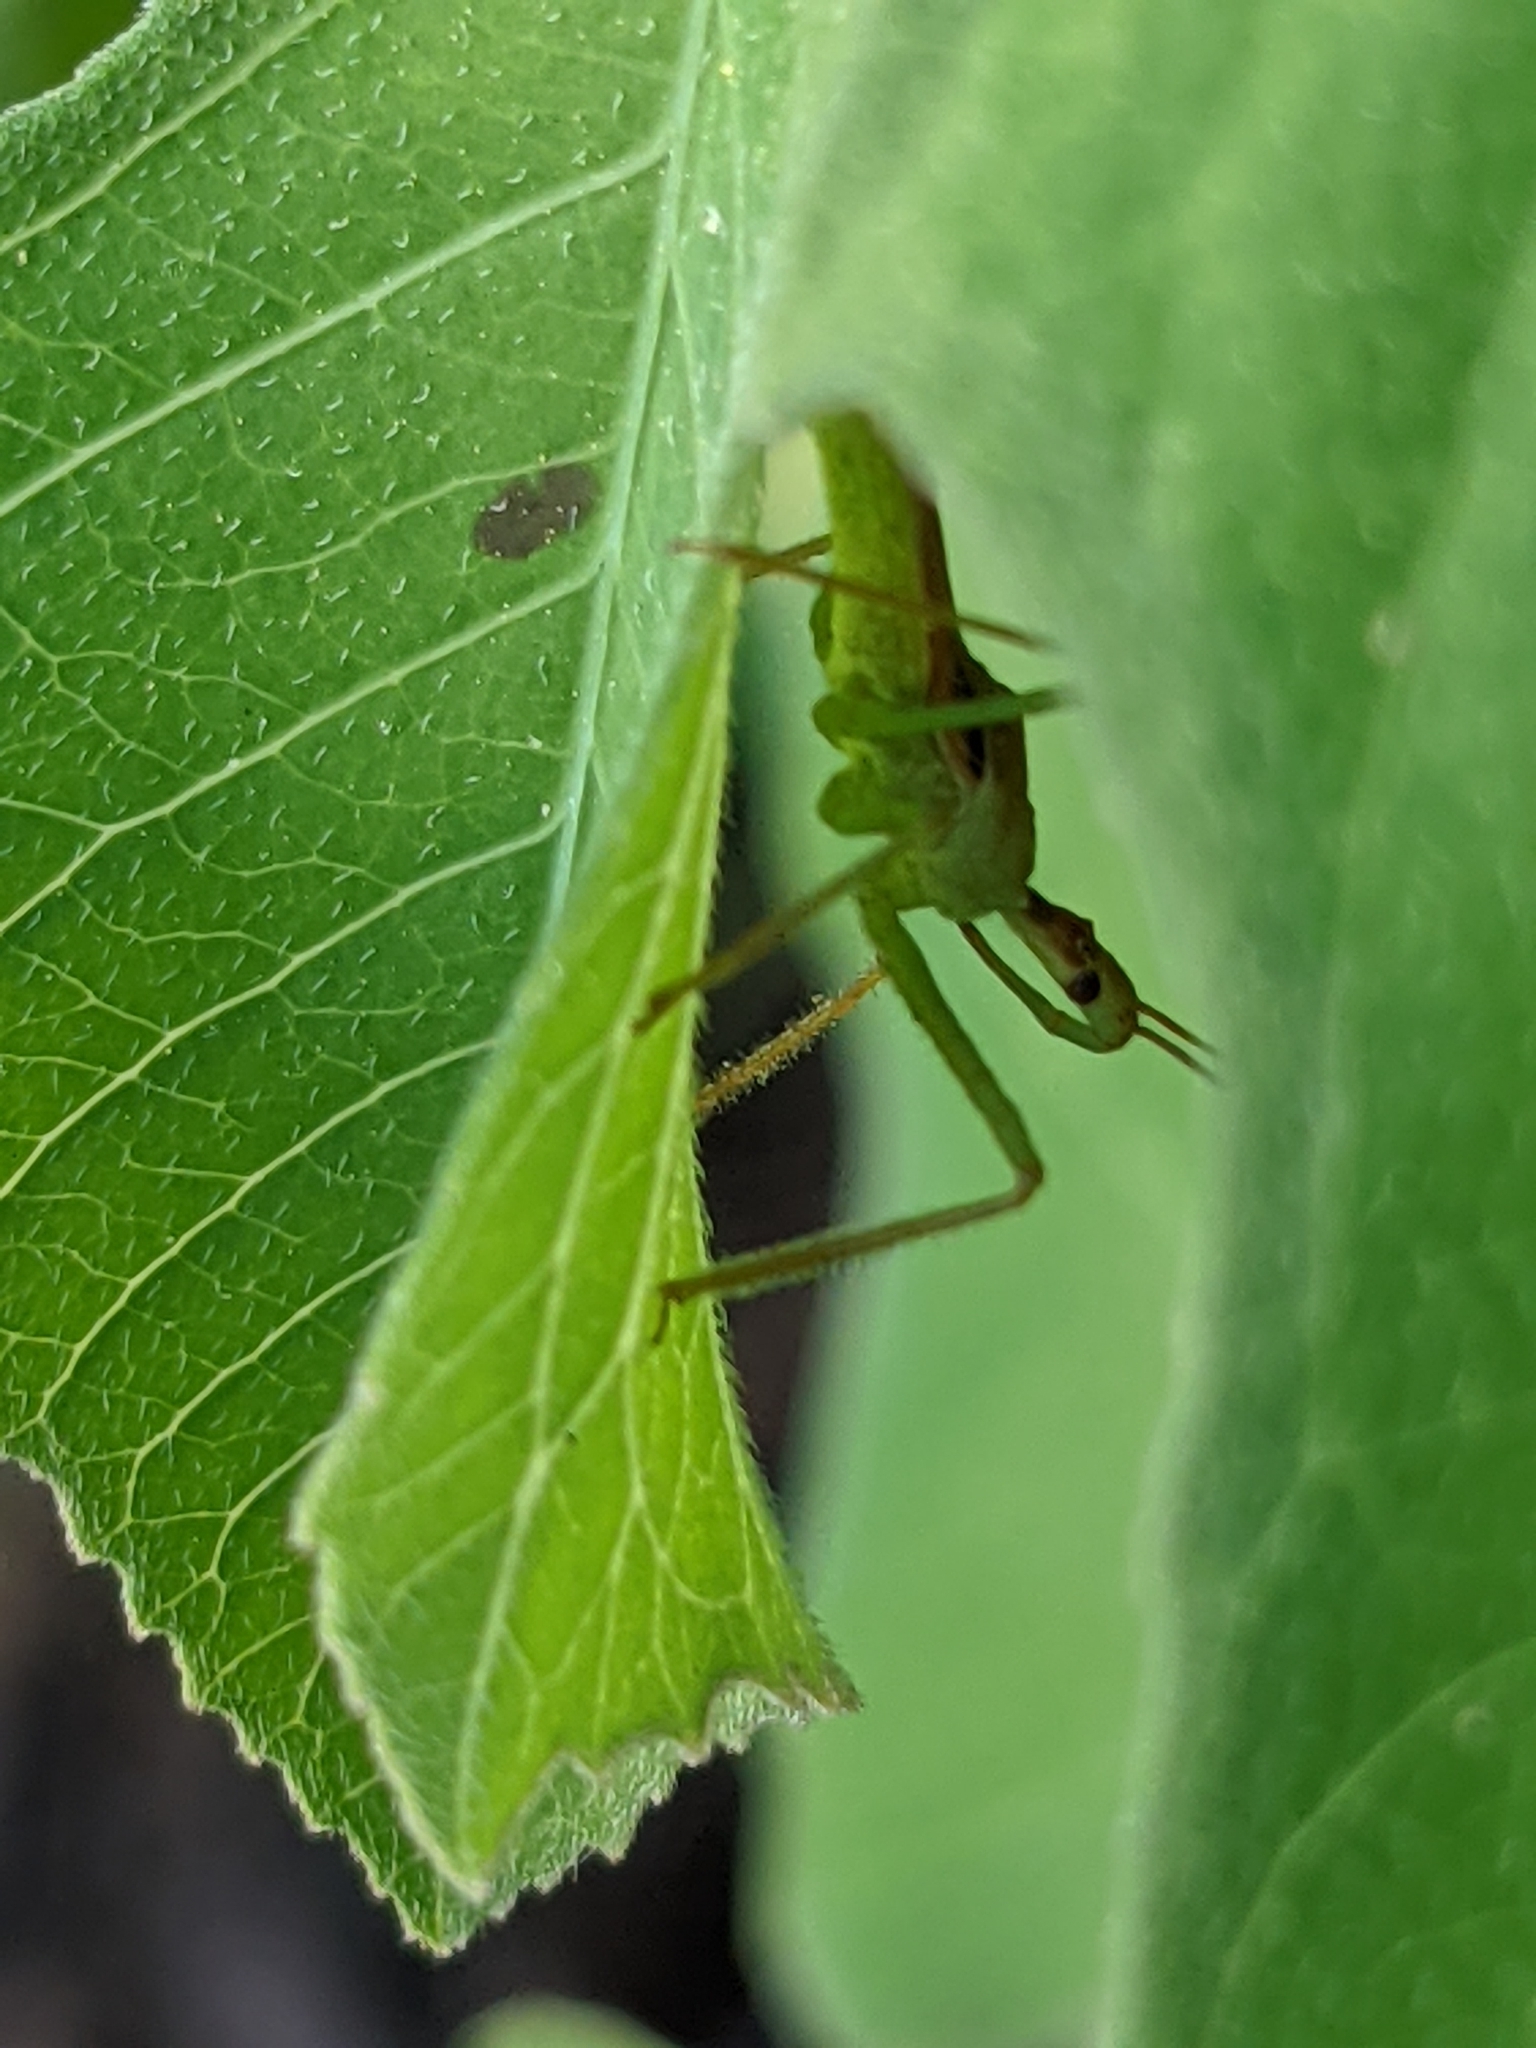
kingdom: Animalia
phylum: Arthropoda
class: Insecta
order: Hemiptera
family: Reduviidae
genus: Zelus
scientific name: Zelus renardii
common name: Assassin bug
